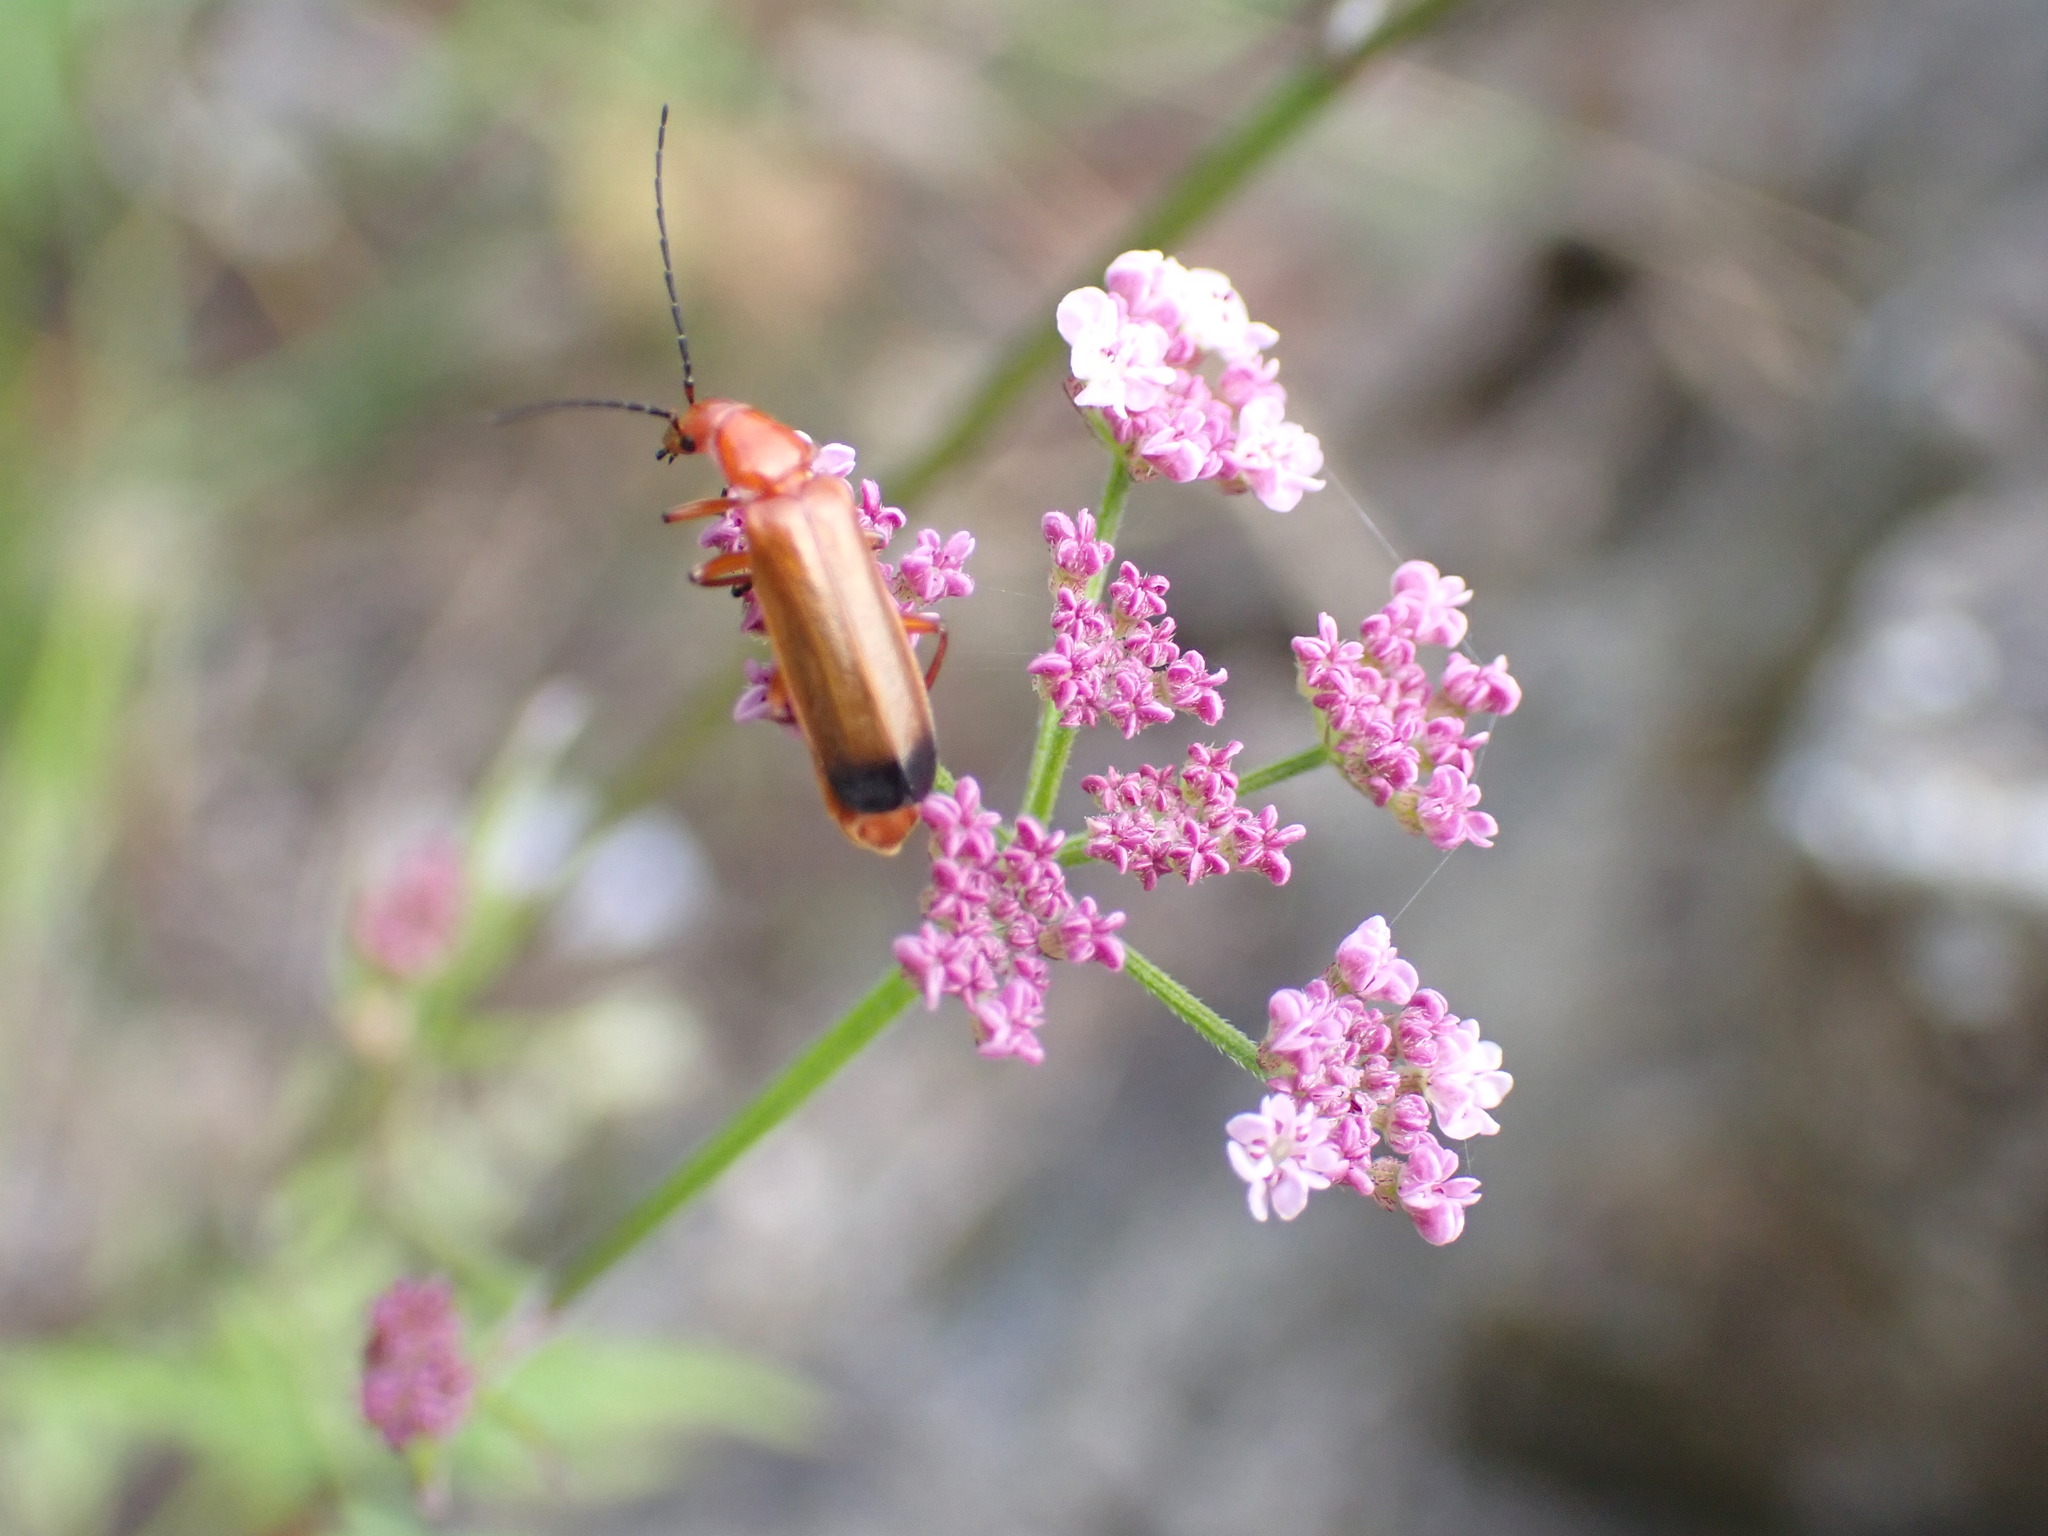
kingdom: Animalia
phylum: Arthropoda
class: Insecta
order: Coleoptera
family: Cantharidae
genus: Rhagonycha
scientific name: Rhagonycha fulva
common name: Common red soldier beetle
